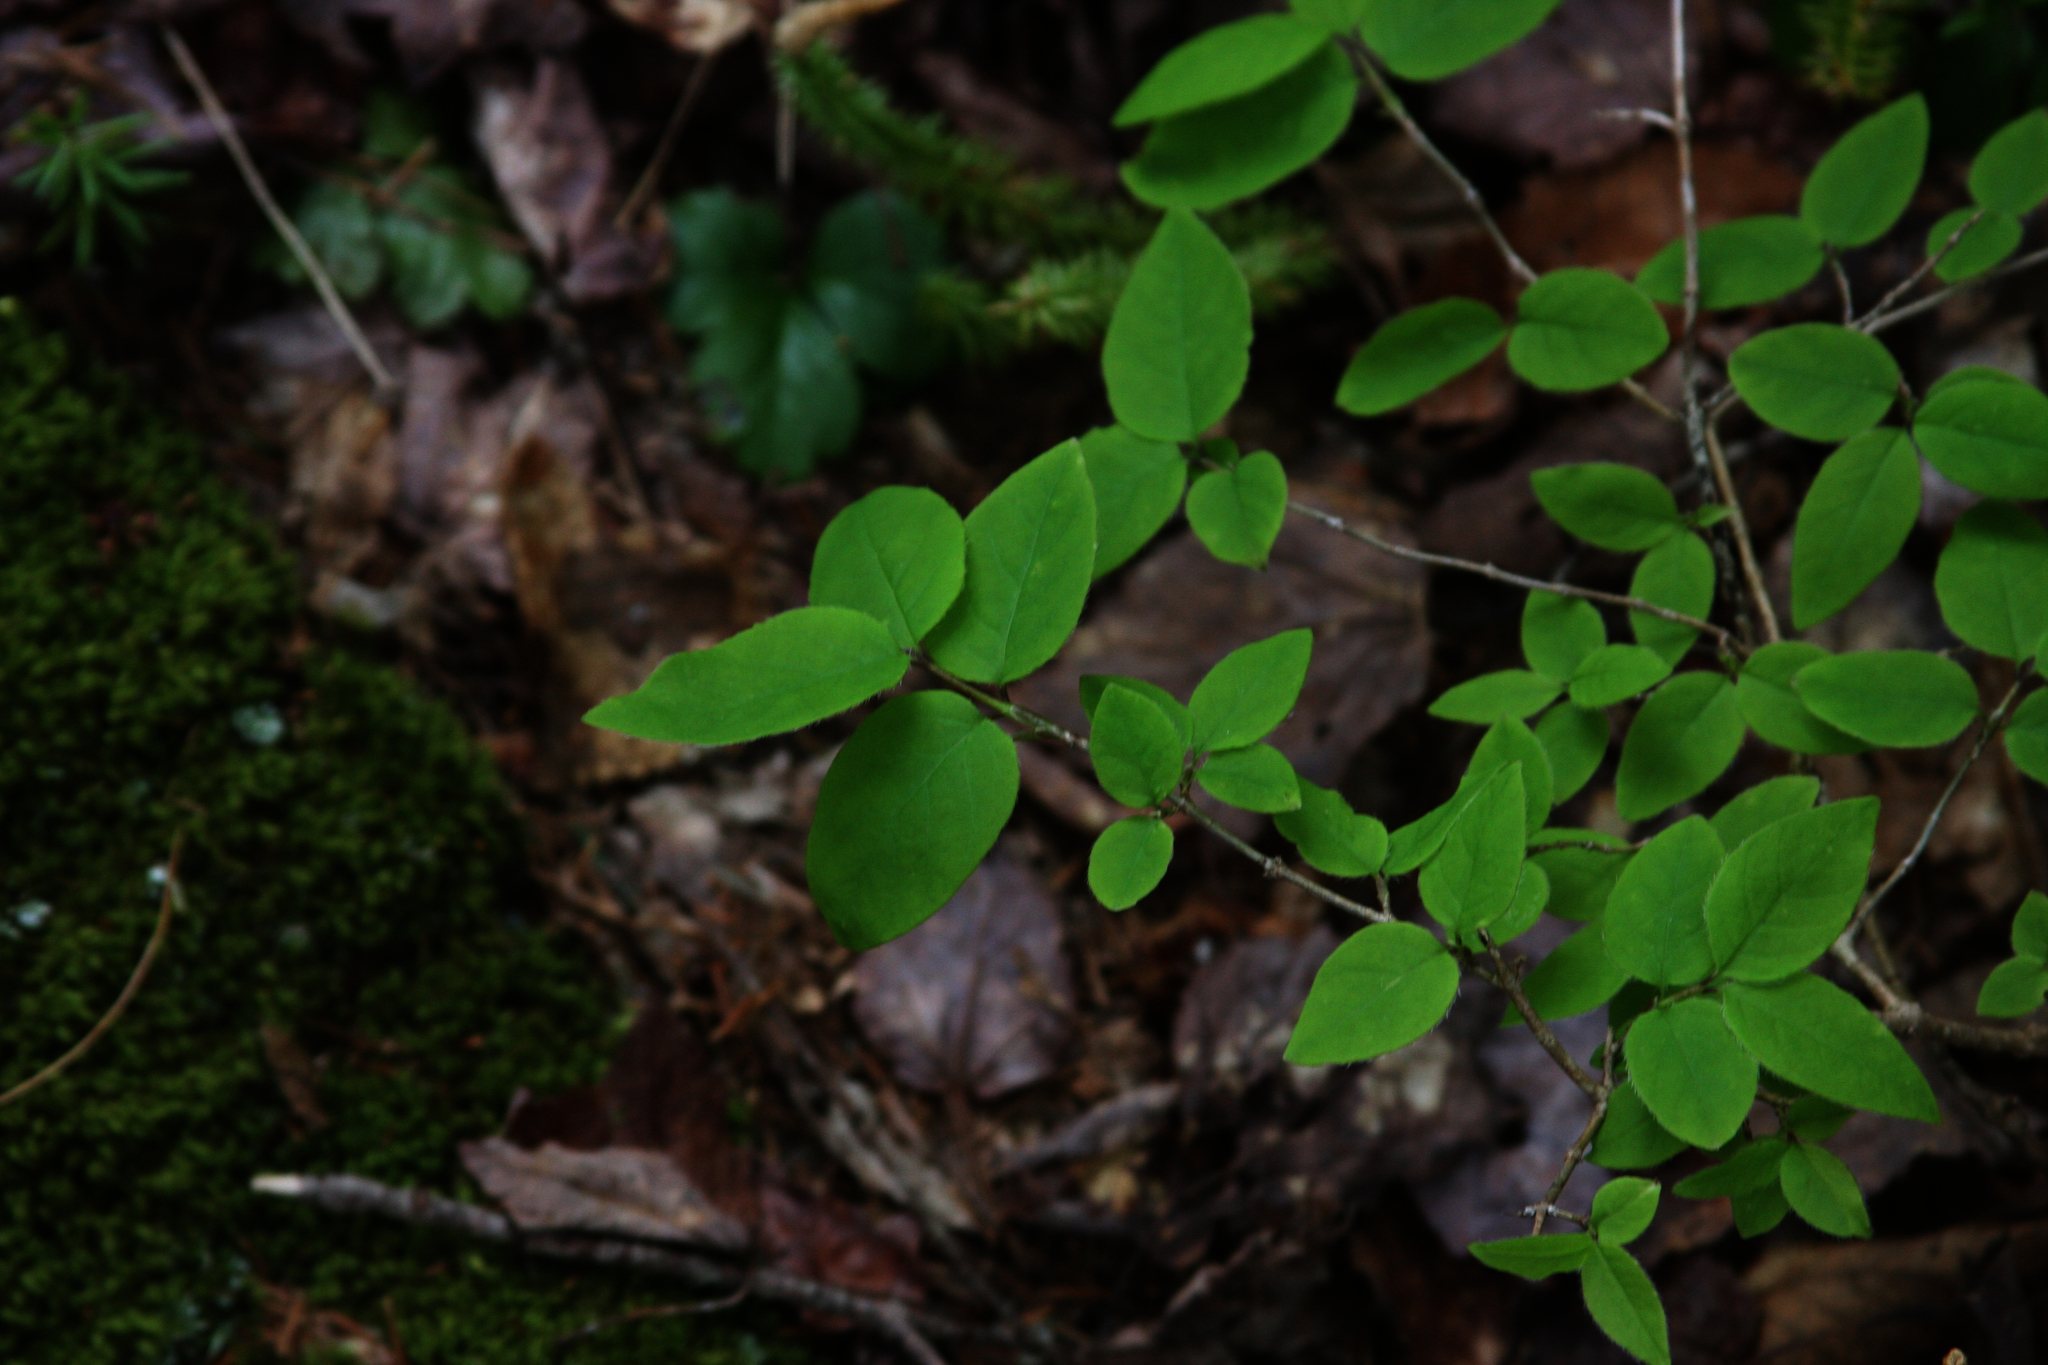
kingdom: Plantae
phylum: Tracheophyta
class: Magnoliopsida
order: Dipsacales
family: Caprifoliaceae
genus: Lonicera
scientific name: Lonicera canadensis
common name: American fly-honeysuckle
